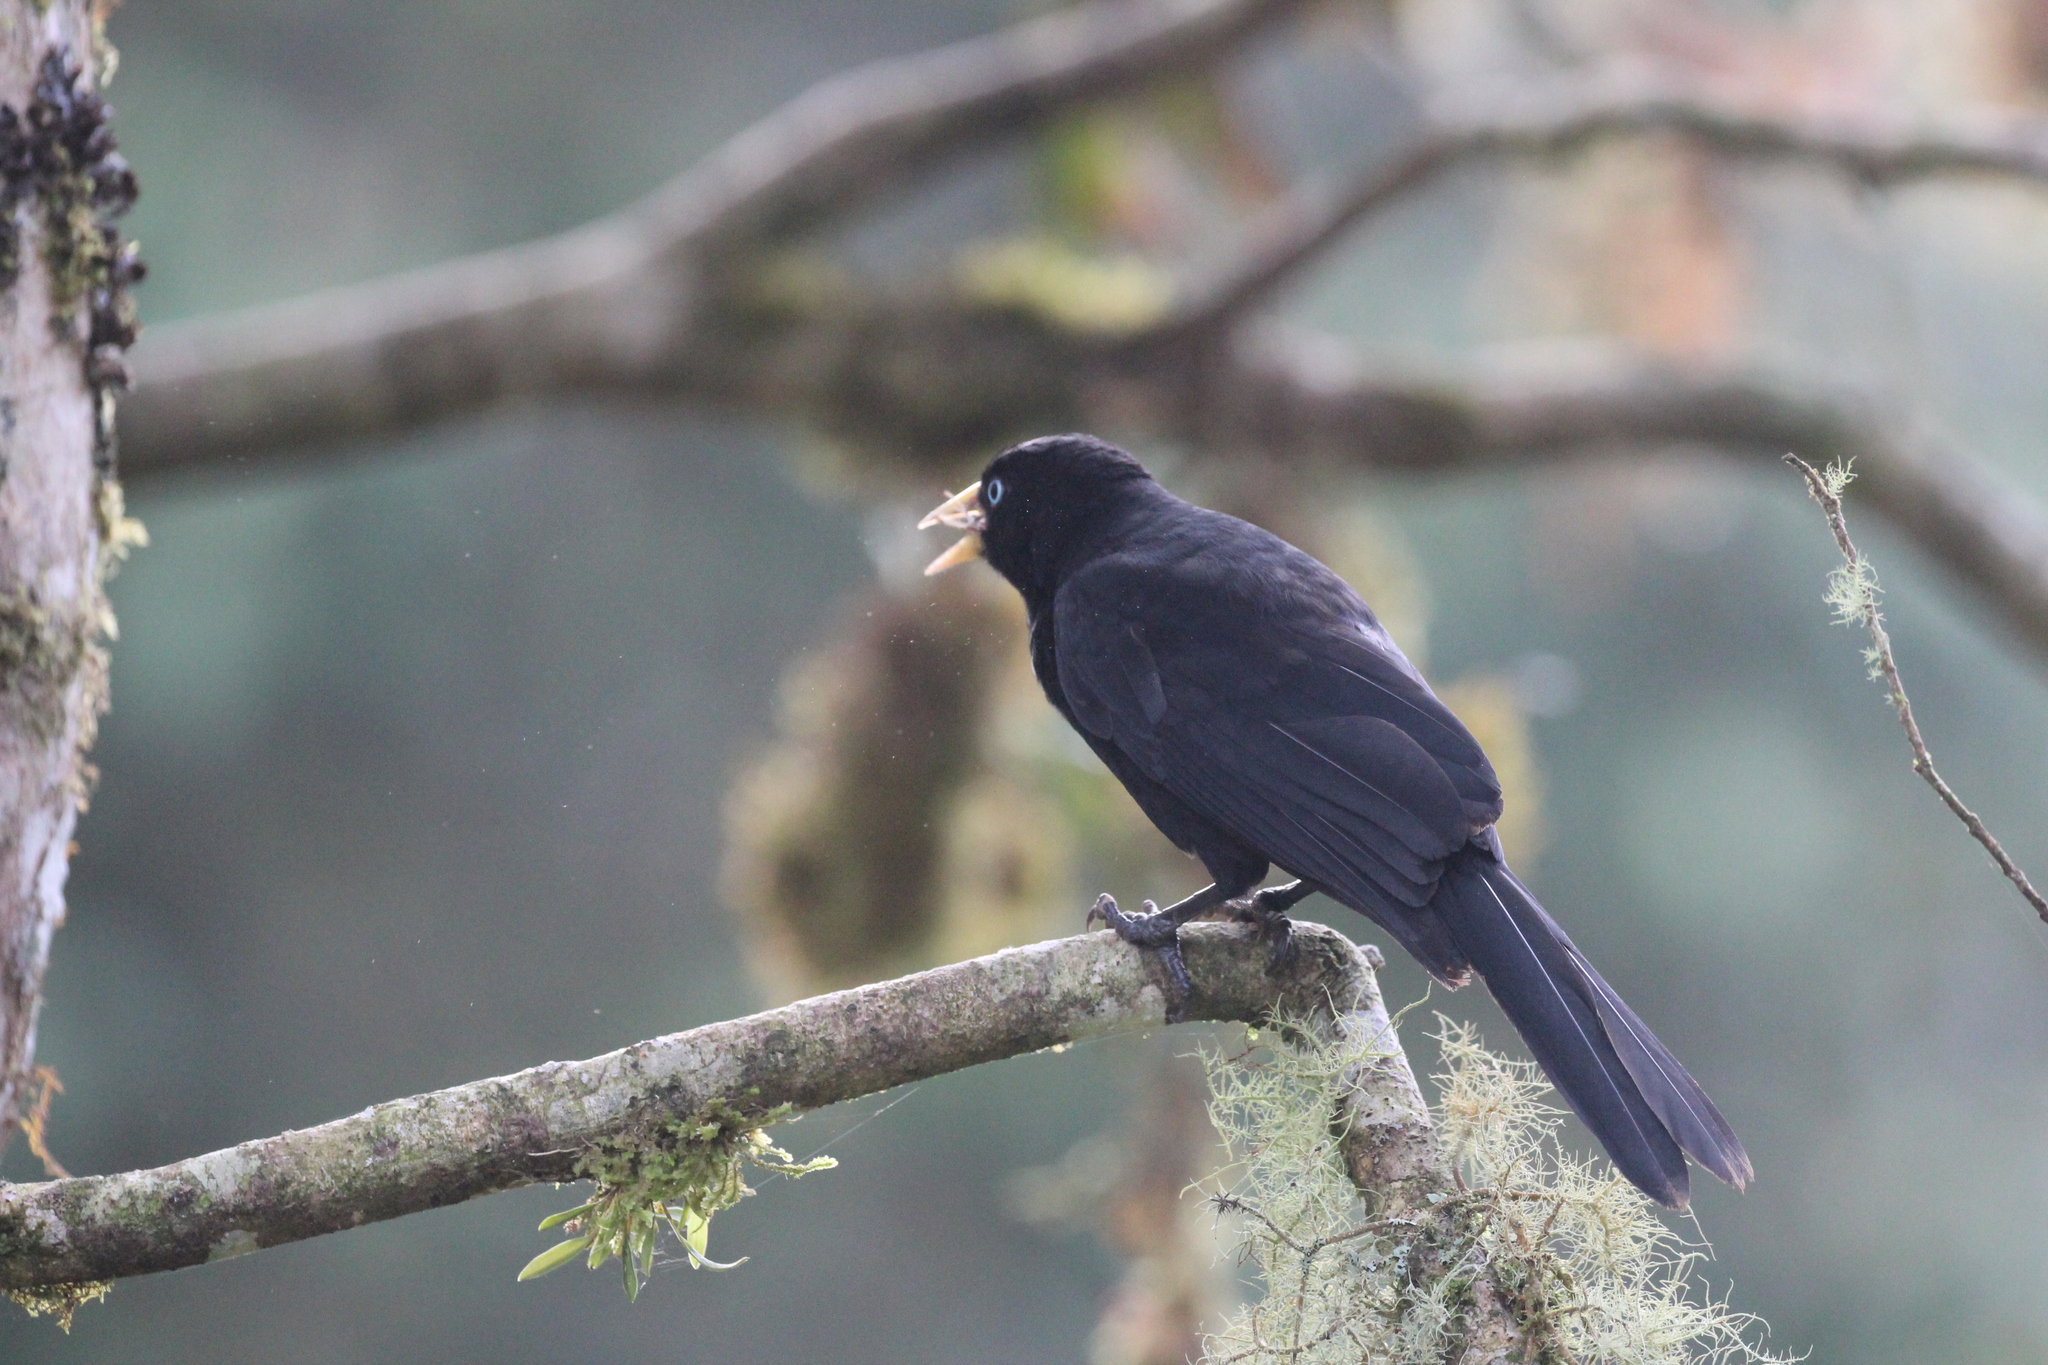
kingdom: Animalia
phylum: Chordata
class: Aves
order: Passeriformes
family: Icteridae
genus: Cacicus
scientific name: Cacicus uropygialis
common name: Scarlet-rumped cacique
